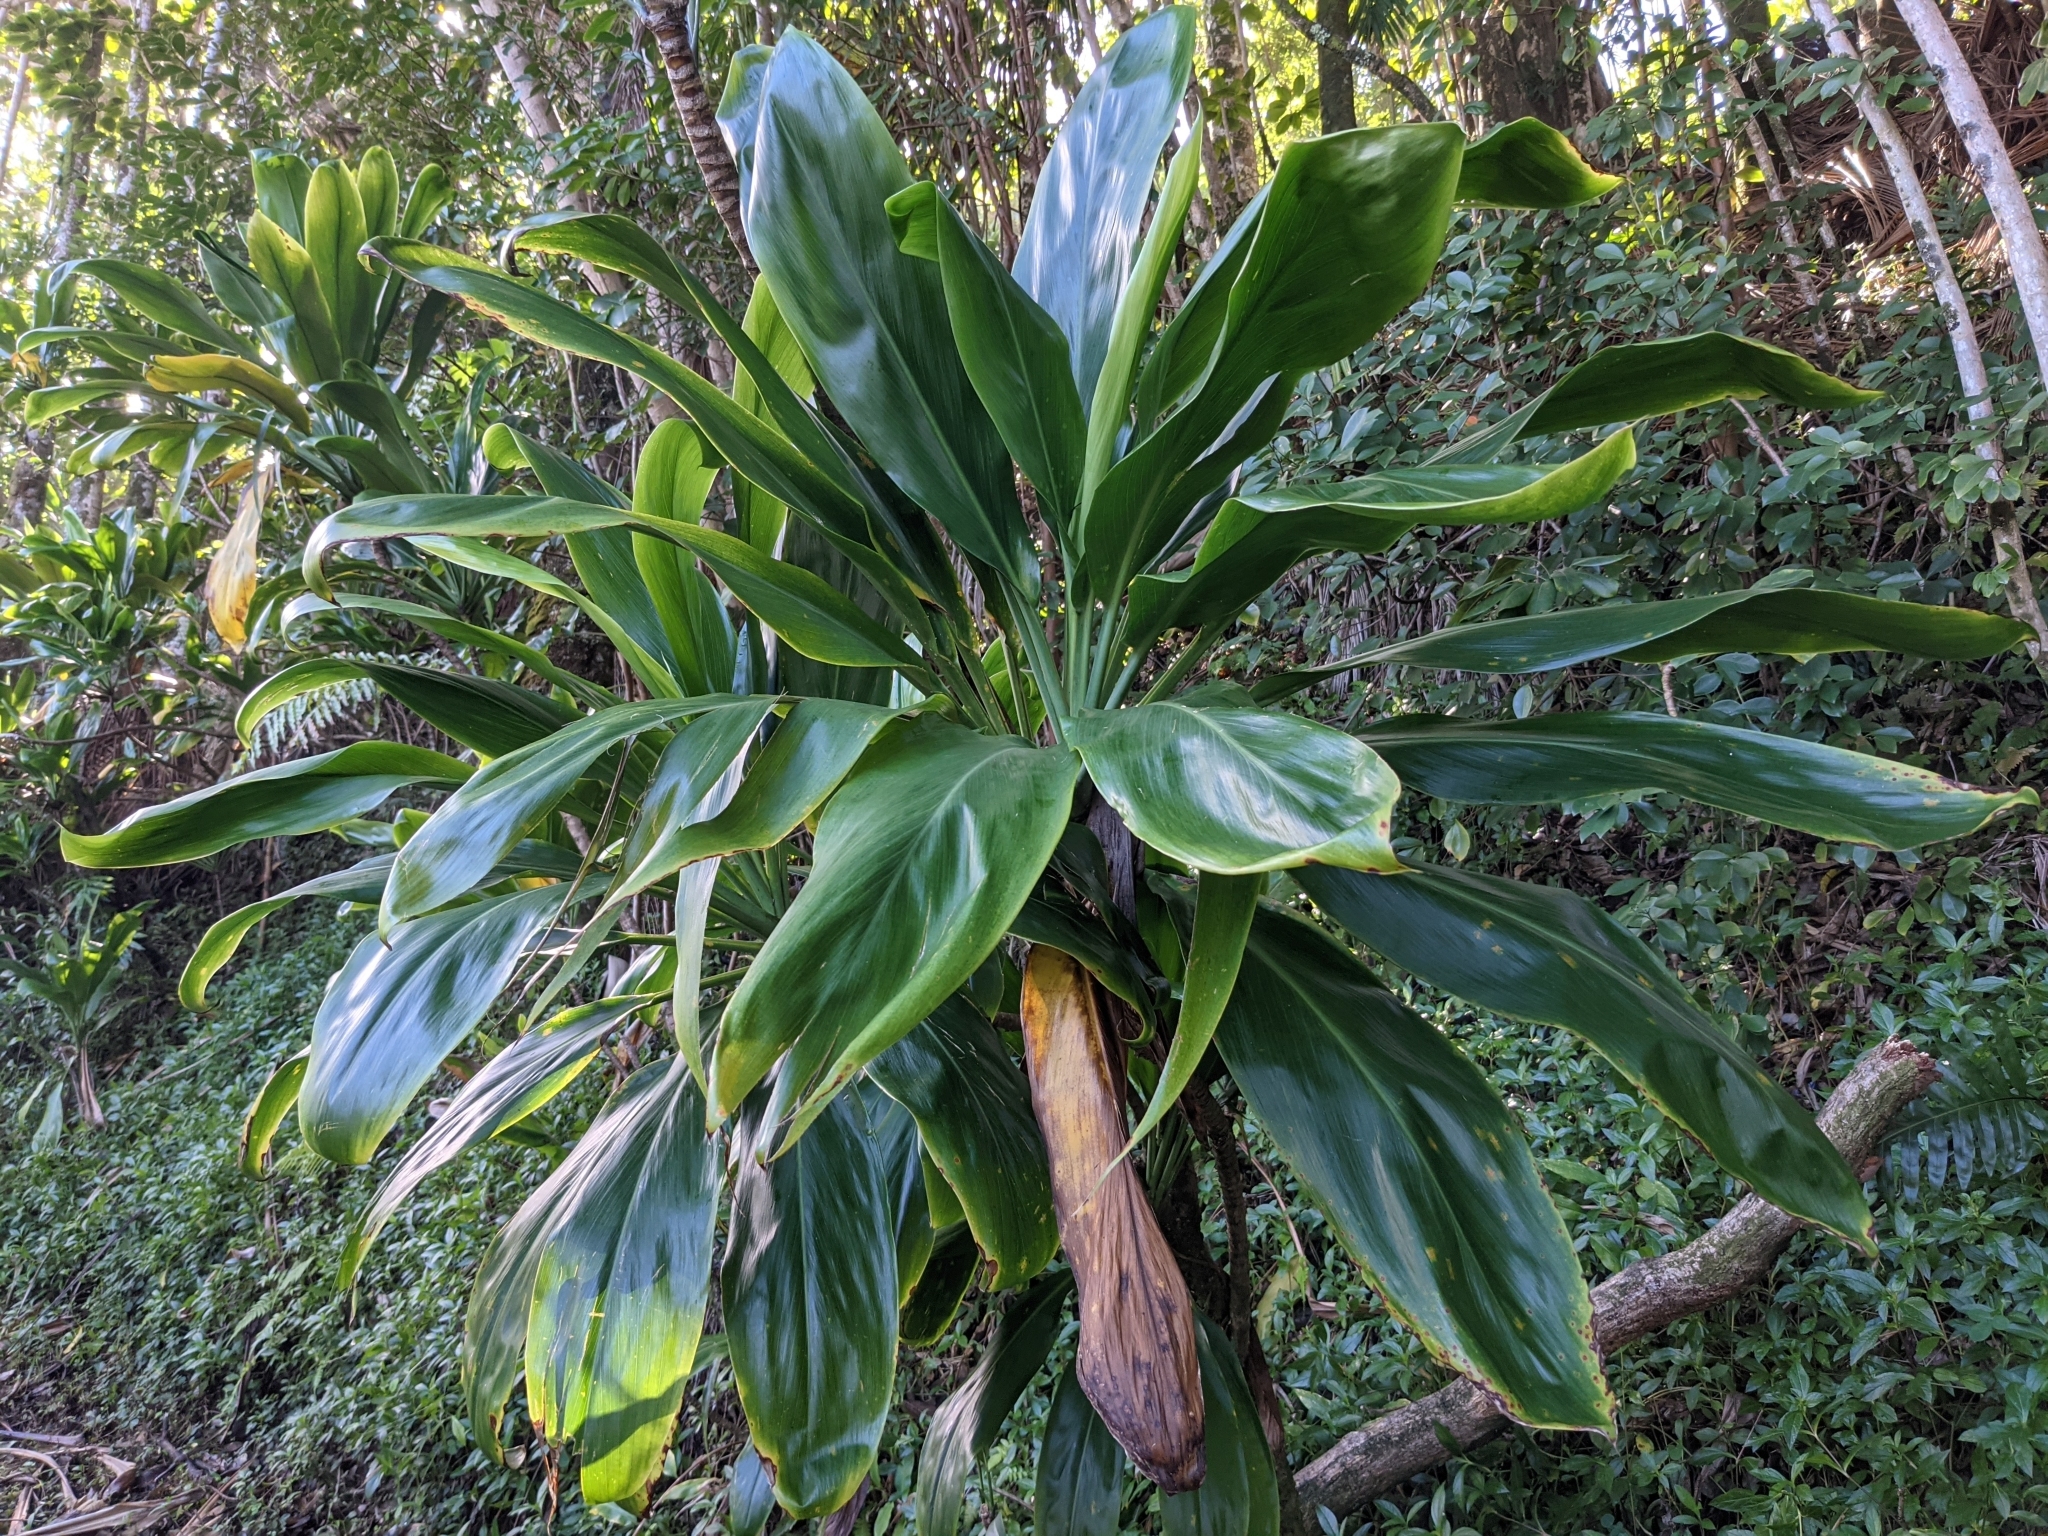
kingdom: Plantae
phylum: Tracheophyta
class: Liliopsida
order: Asparagales
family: Asparagaceae
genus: Cordyline
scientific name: Cordyline fruticosa
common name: Good-luck-plant
